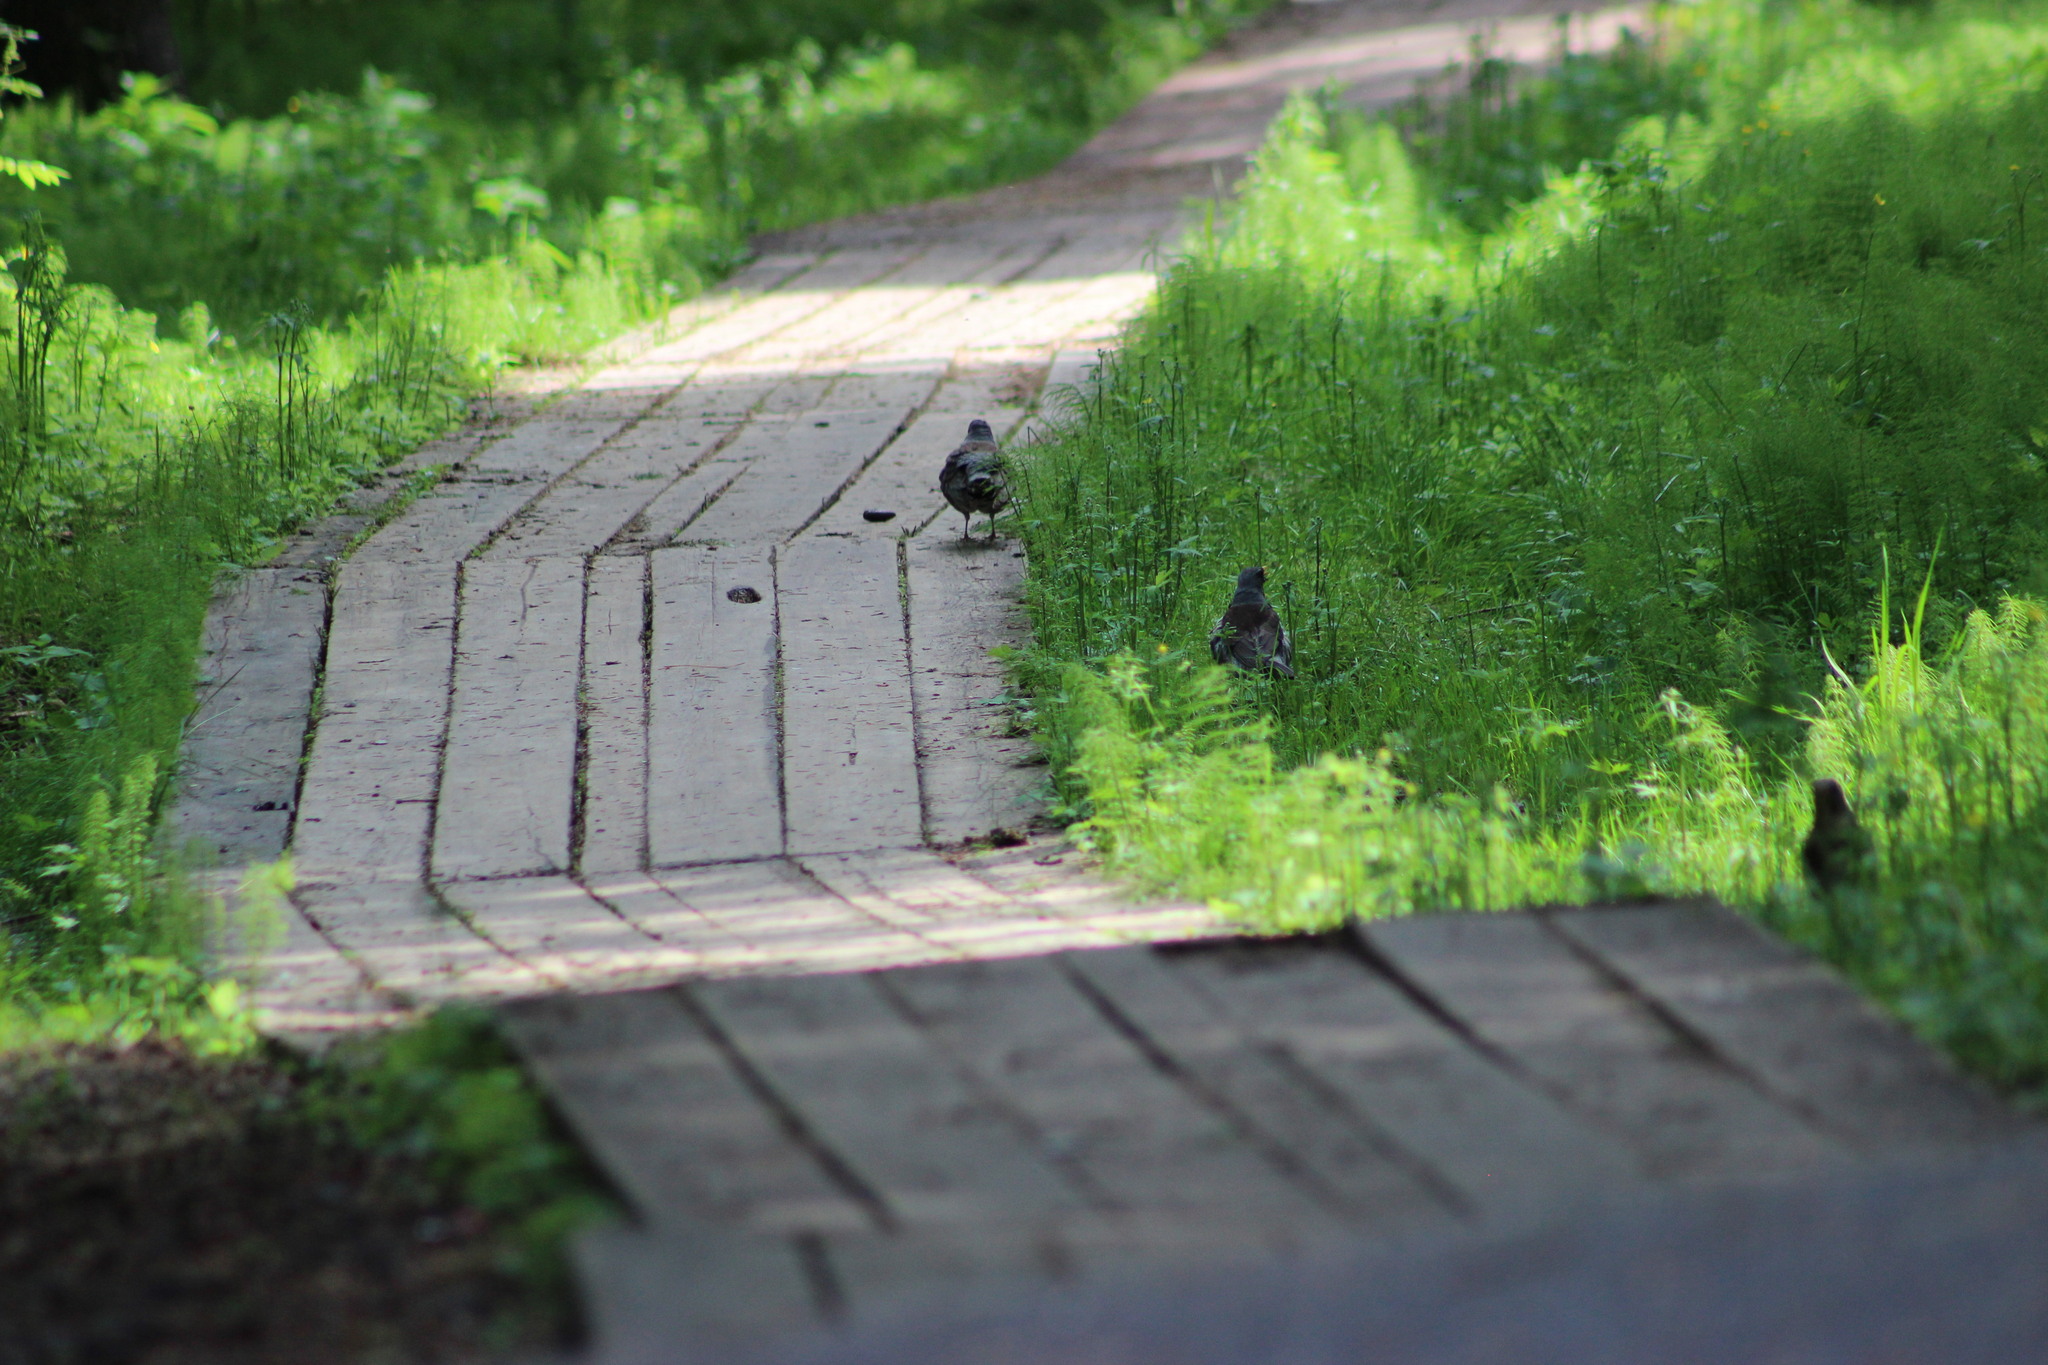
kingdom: Animalia
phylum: Chordata
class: Aves
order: Passeriformes
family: Turdidae
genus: Turdus
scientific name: Turdus pilaris
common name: Fieldfare
